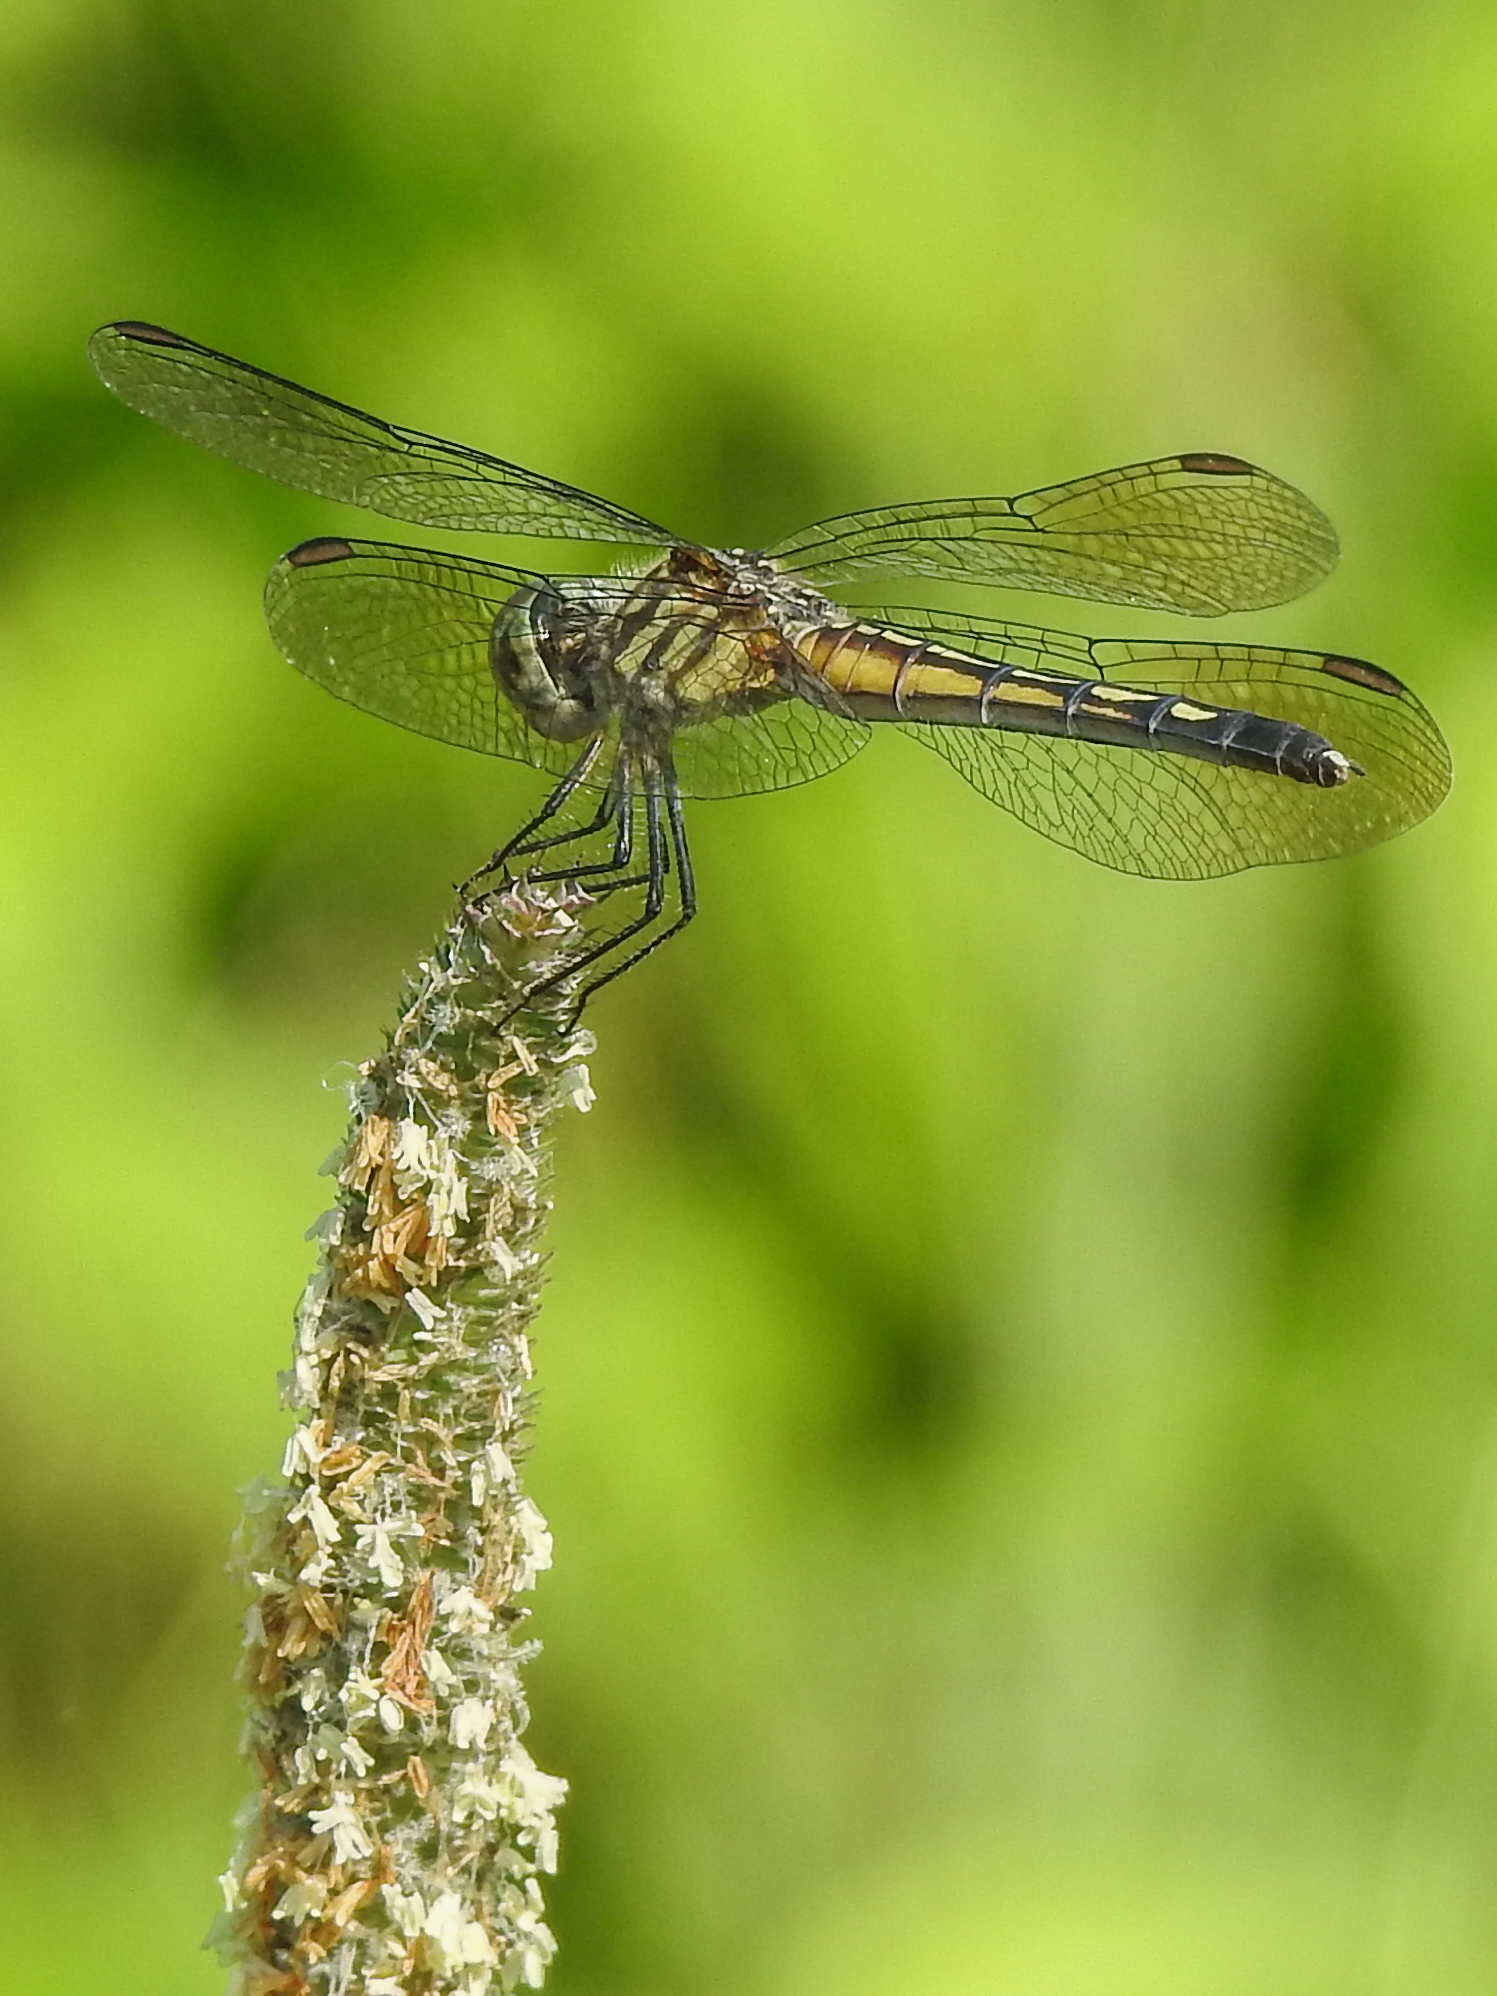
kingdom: Animalia
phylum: Arthropoda
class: Insecta
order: Odonata
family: Libellulidae
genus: Pachydiplax
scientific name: Pachydiplax longipennis
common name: Blue dasher
